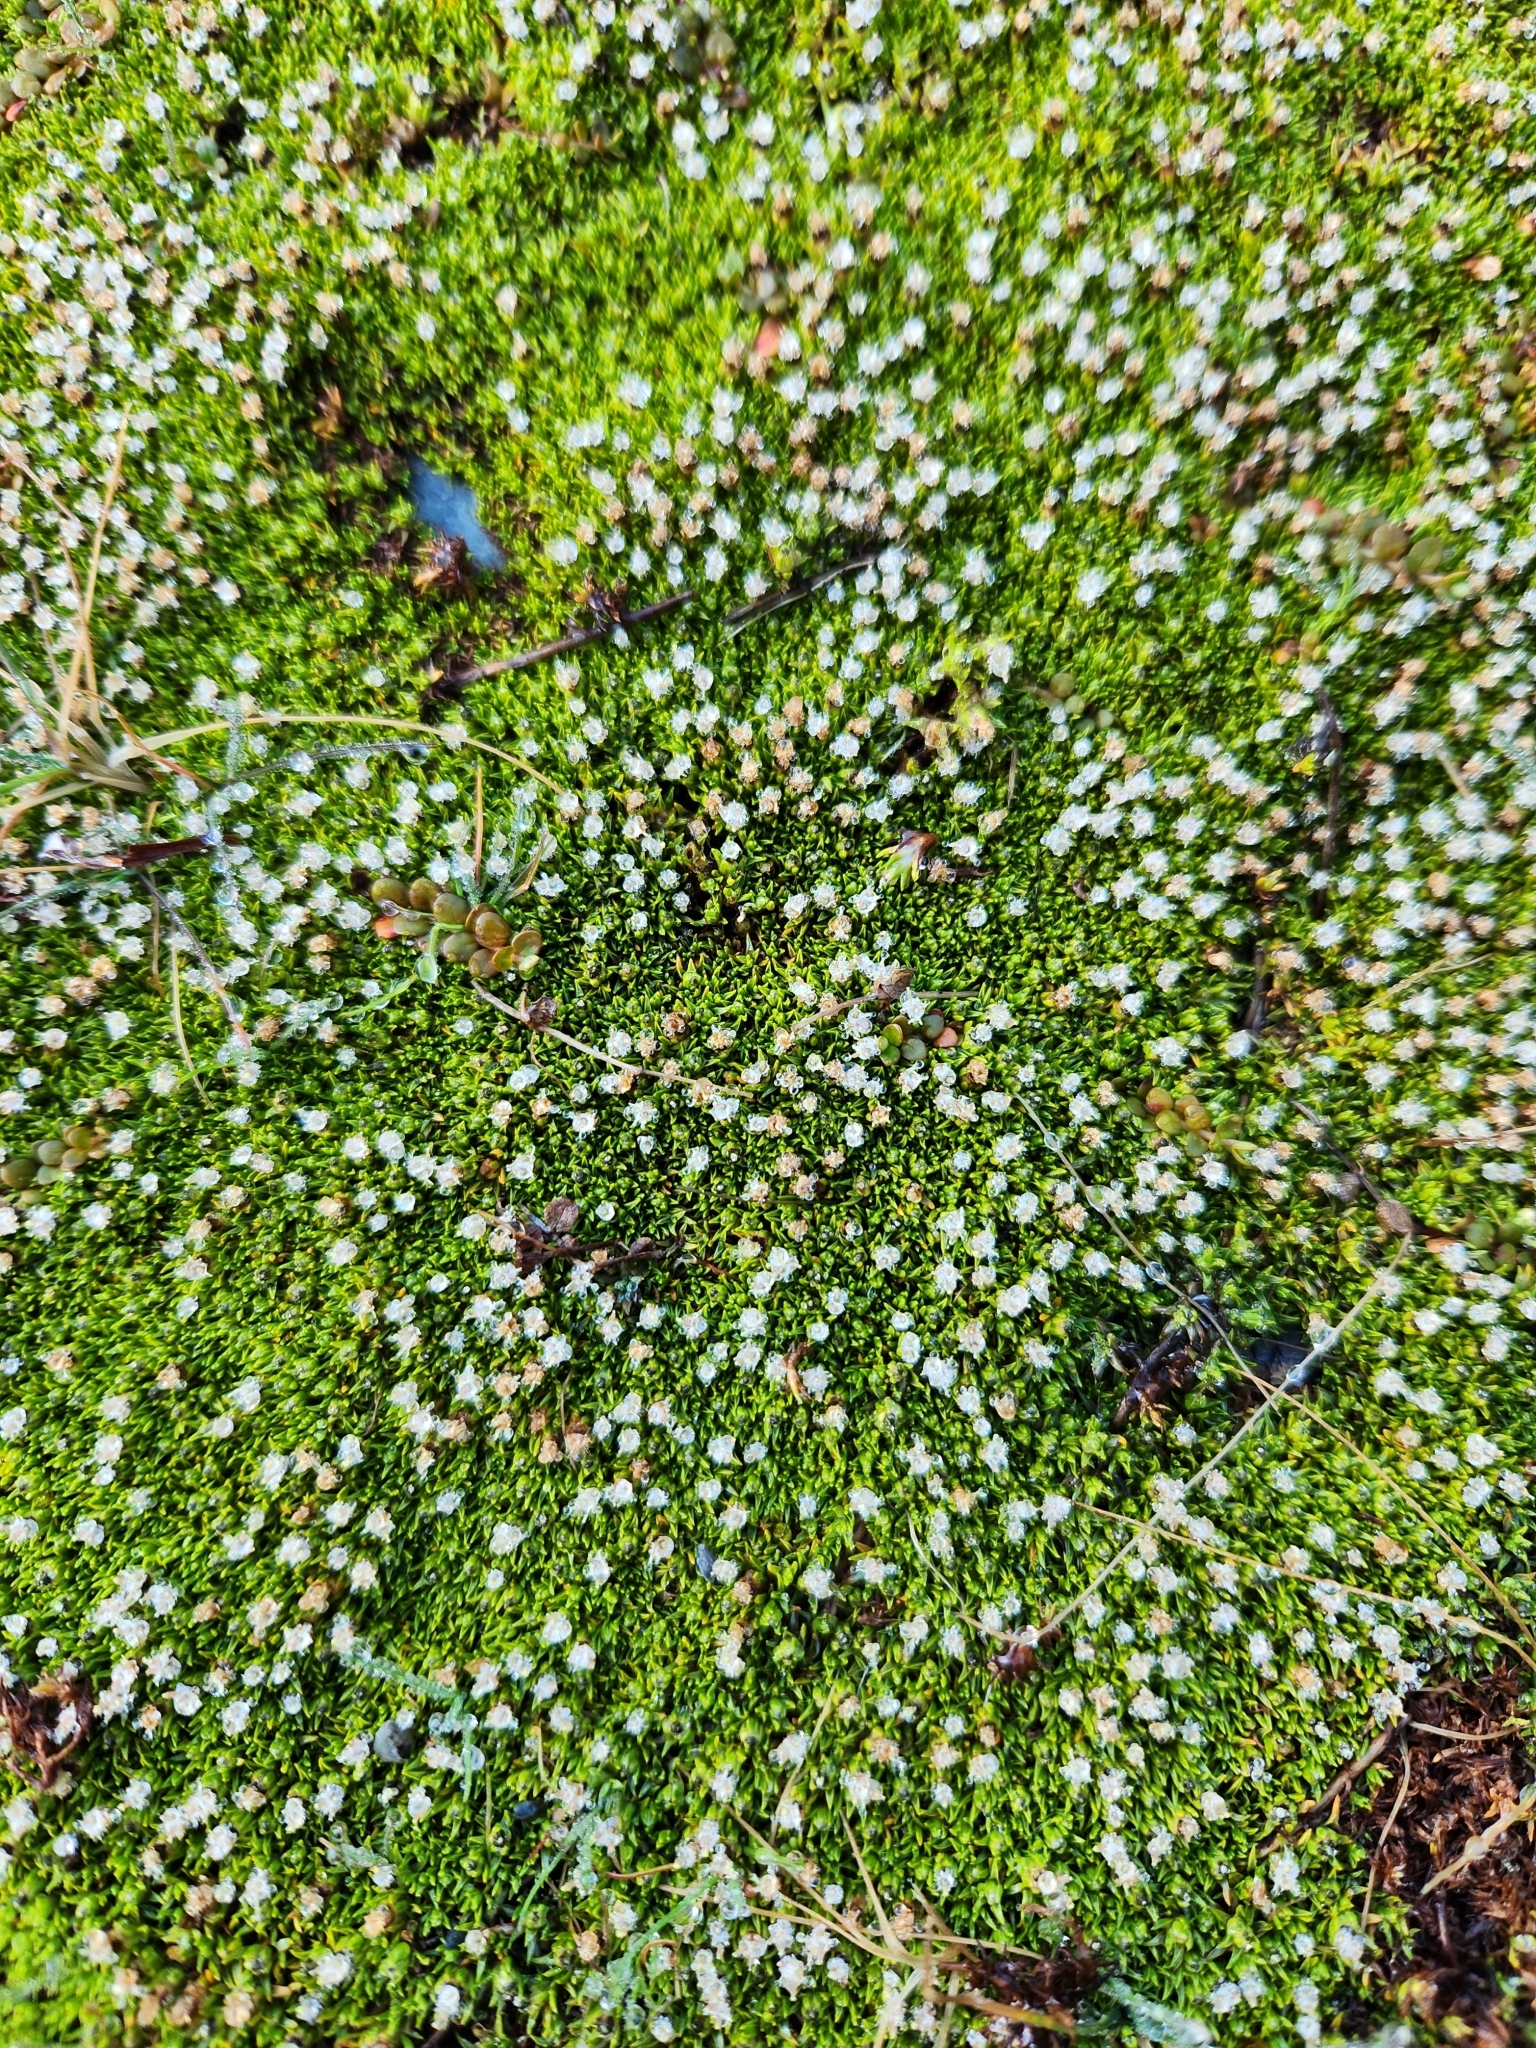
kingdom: Plantae
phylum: Tracheophyta
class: Magnoliopsida
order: Asterales
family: Asteraceae
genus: Raoulia
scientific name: Raoulia tenuicaulis
